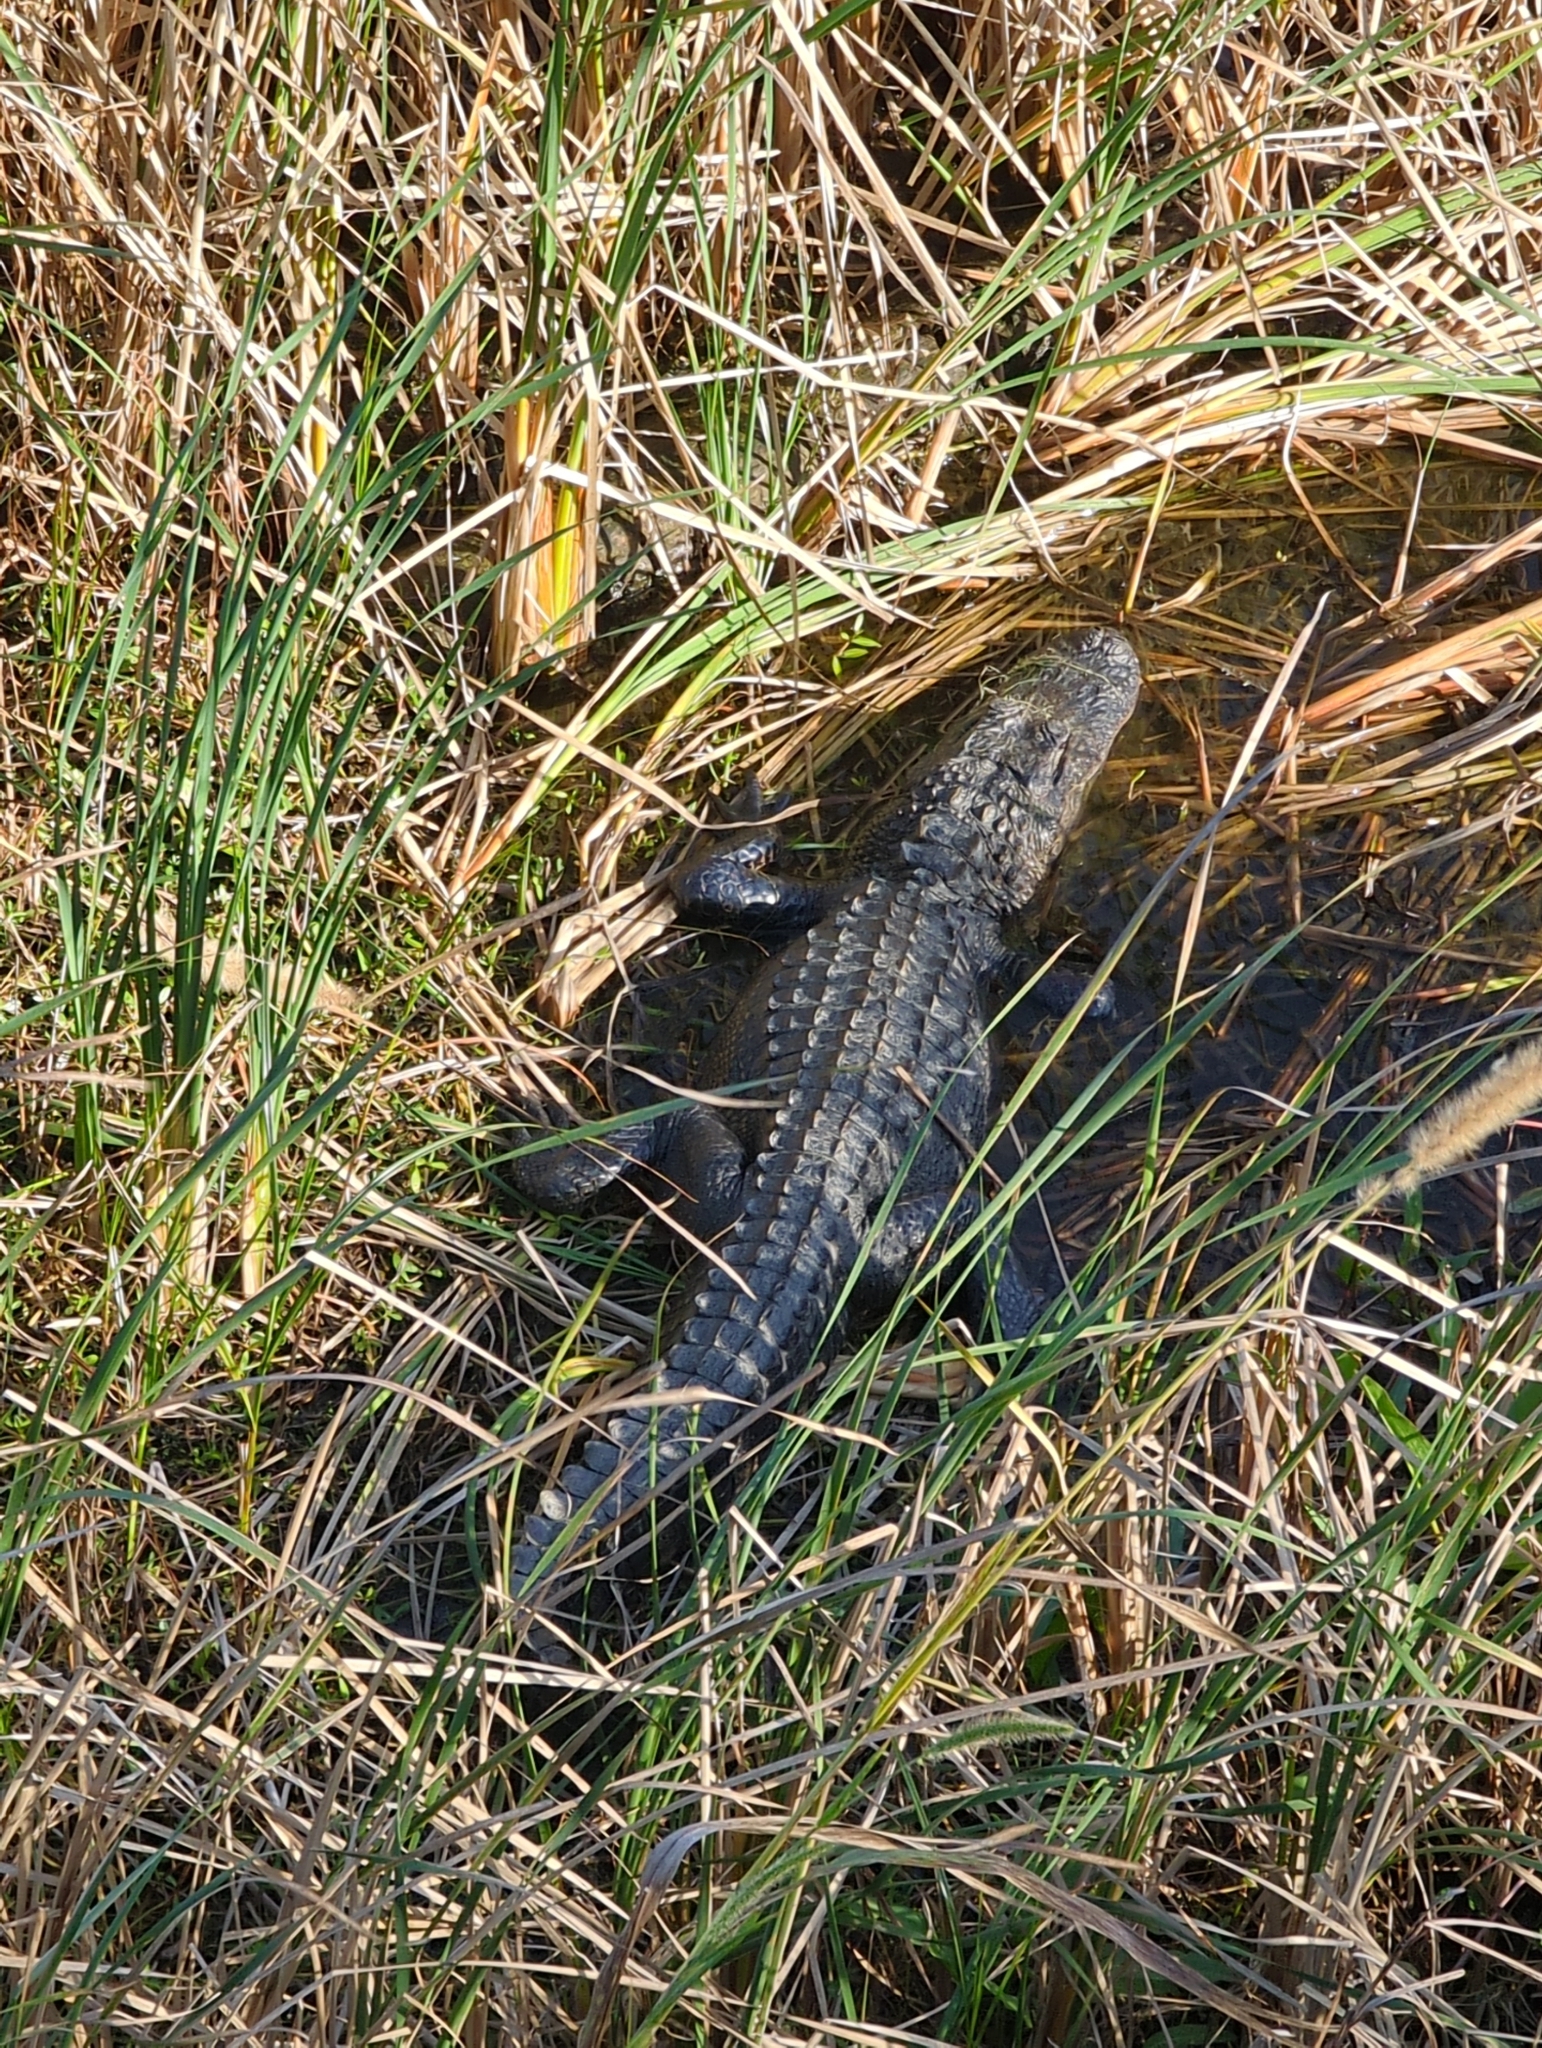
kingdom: Animalia
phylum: Chordata
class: Crocodylia
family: Alligatoridae
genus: Alligator
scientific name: Alligator mississippiensis
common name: American alligator
